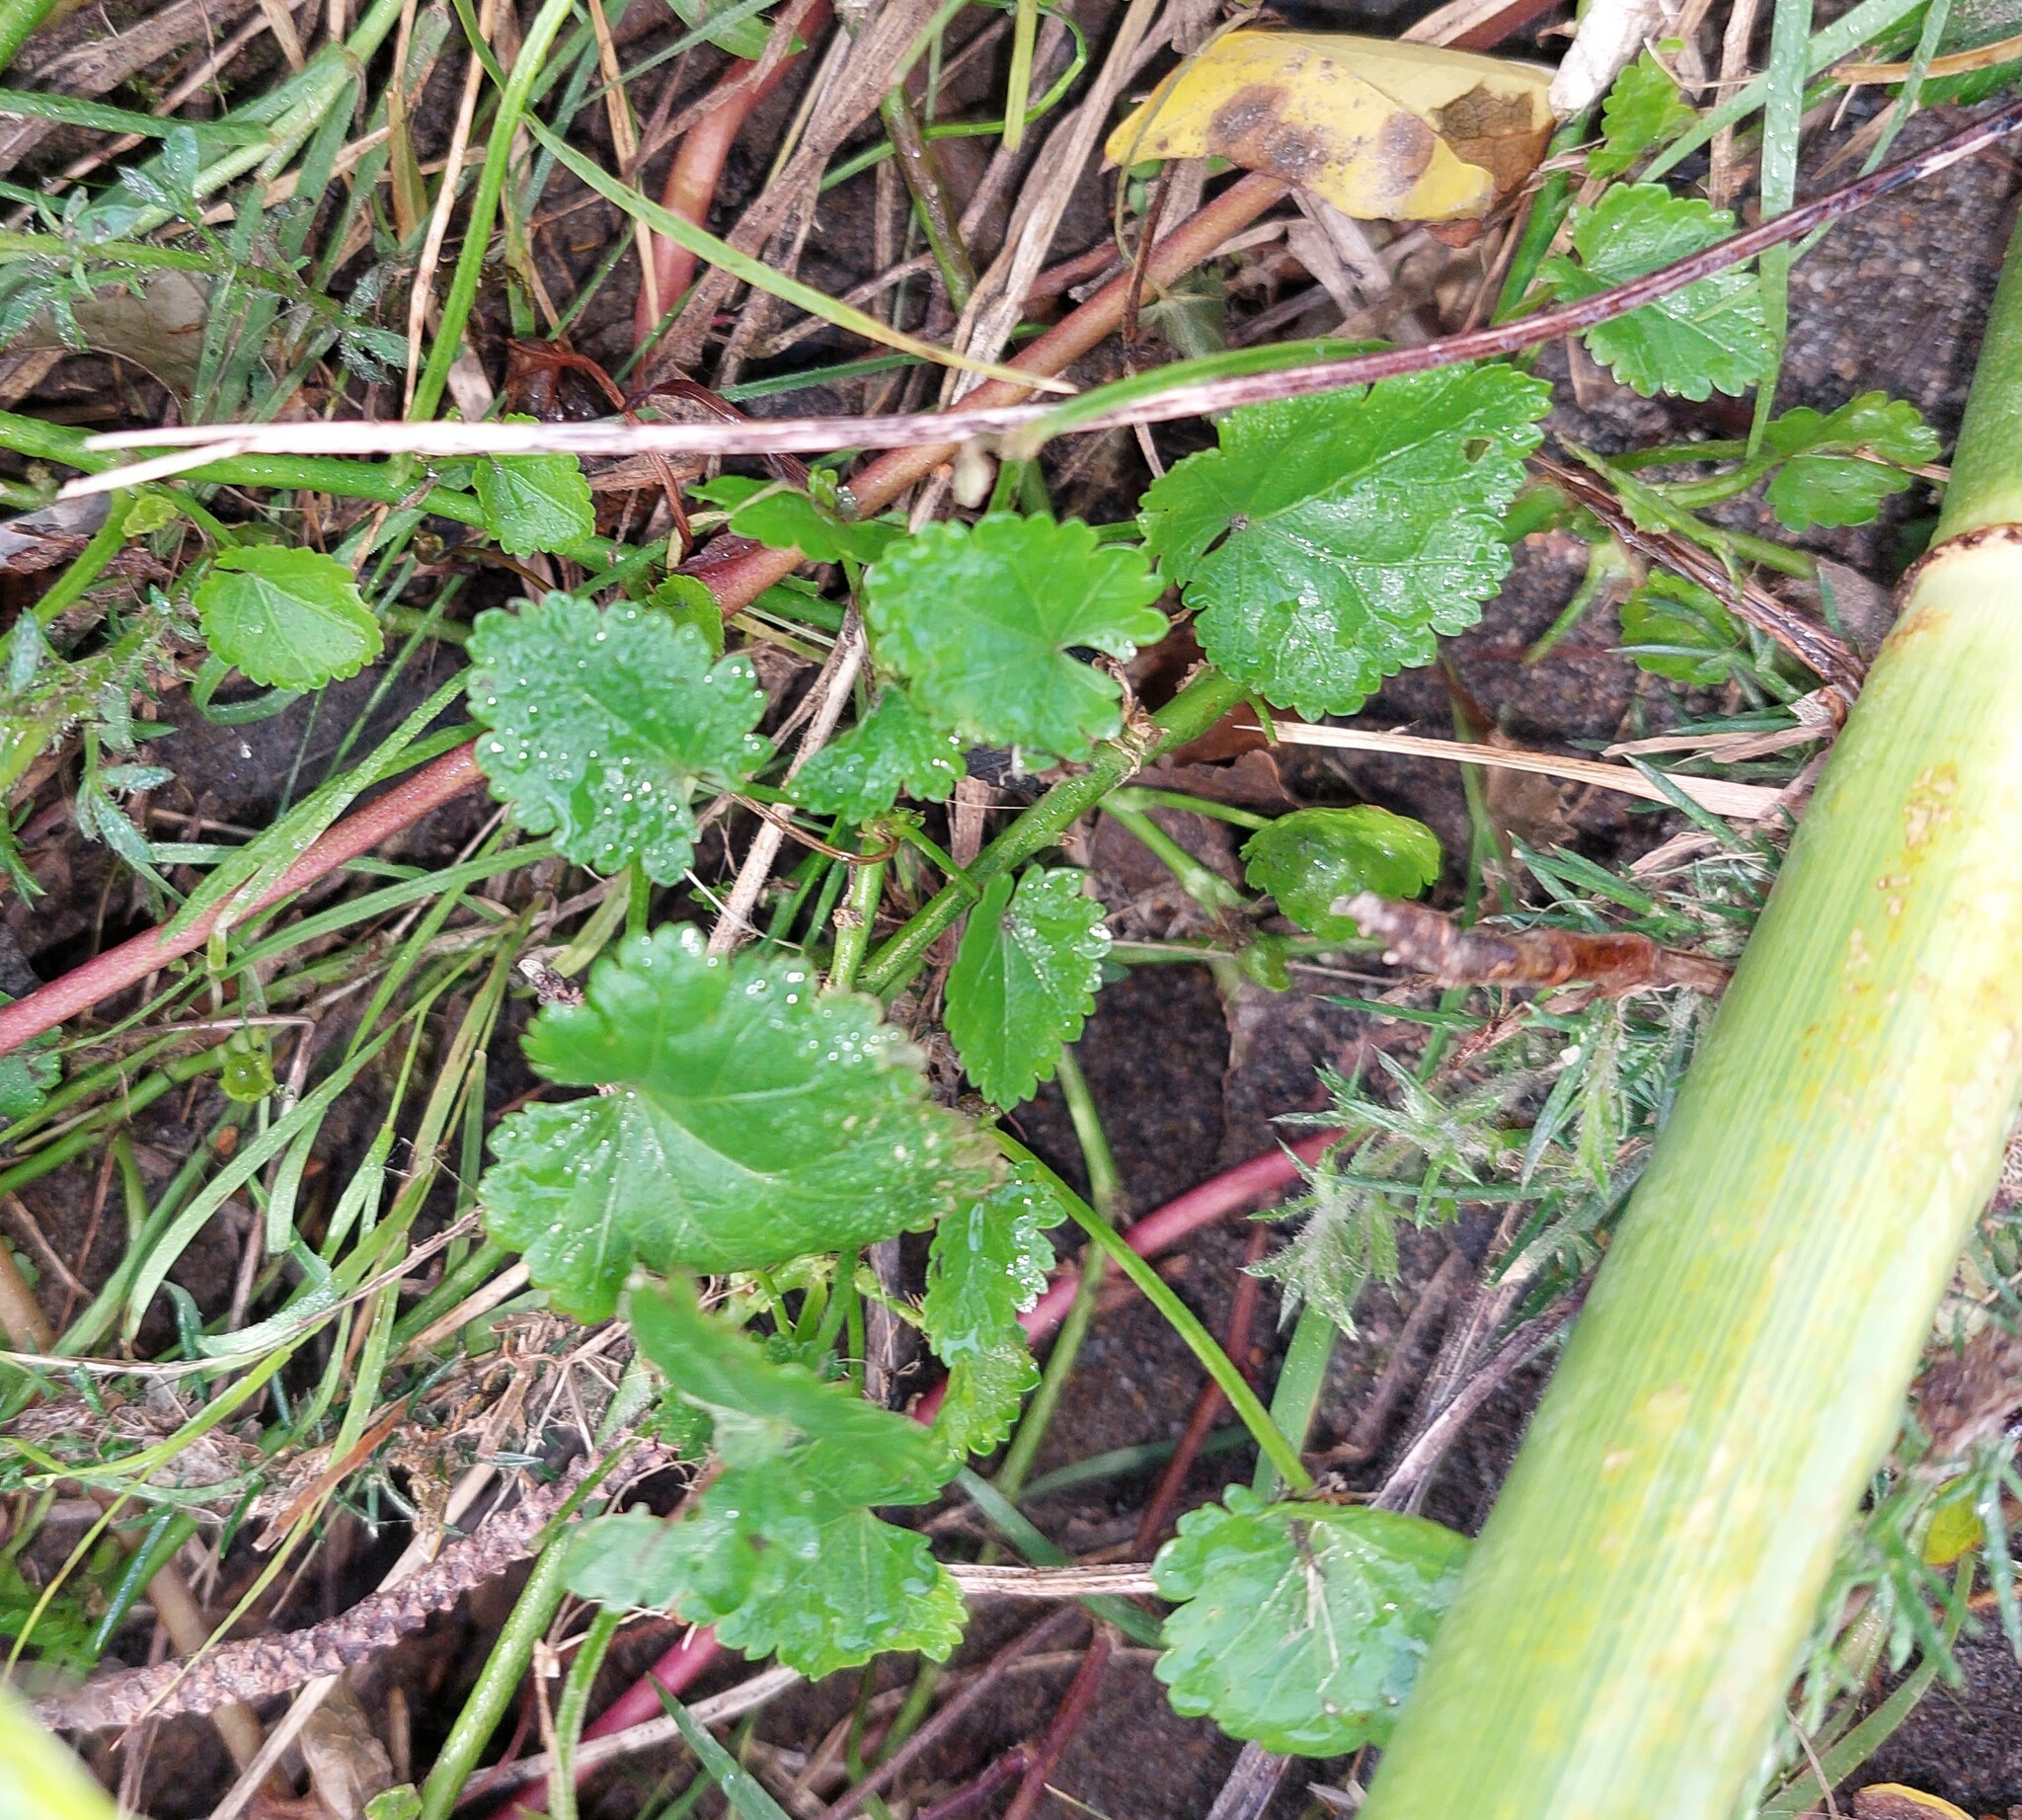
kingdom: Plantae
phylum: Tracheophyta
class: Magnoliopsida
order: Malvales
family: Malvaceae
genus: Modiola
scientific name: Modiola caroliniana
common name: Carolina bristlemallow
